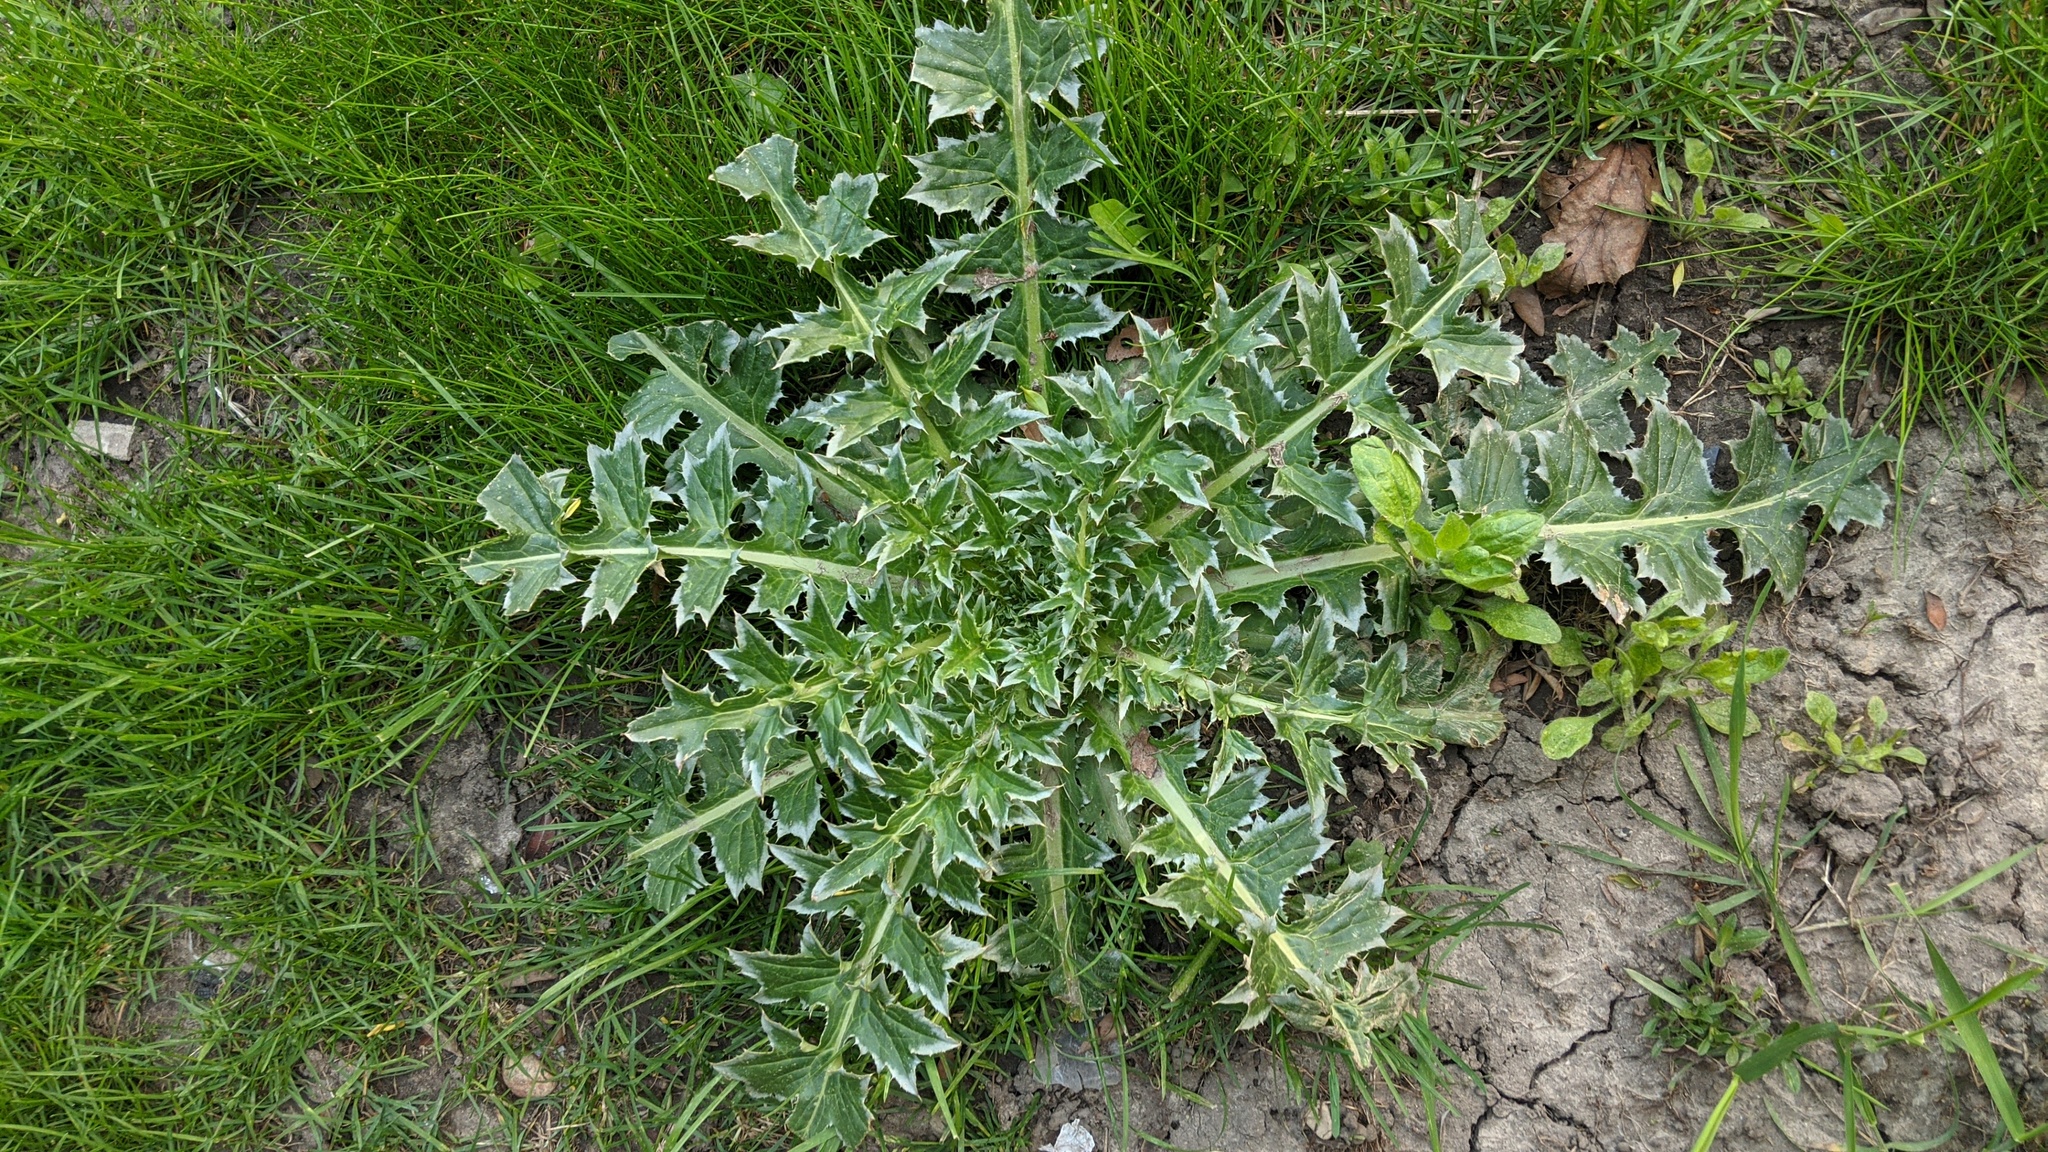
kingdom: Plantae
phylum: Tracheophyta
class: Magnoliopsida
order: Asterales
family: Asteraceae
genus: Carduus
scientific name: Carduus nutans
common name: Musk thistle
